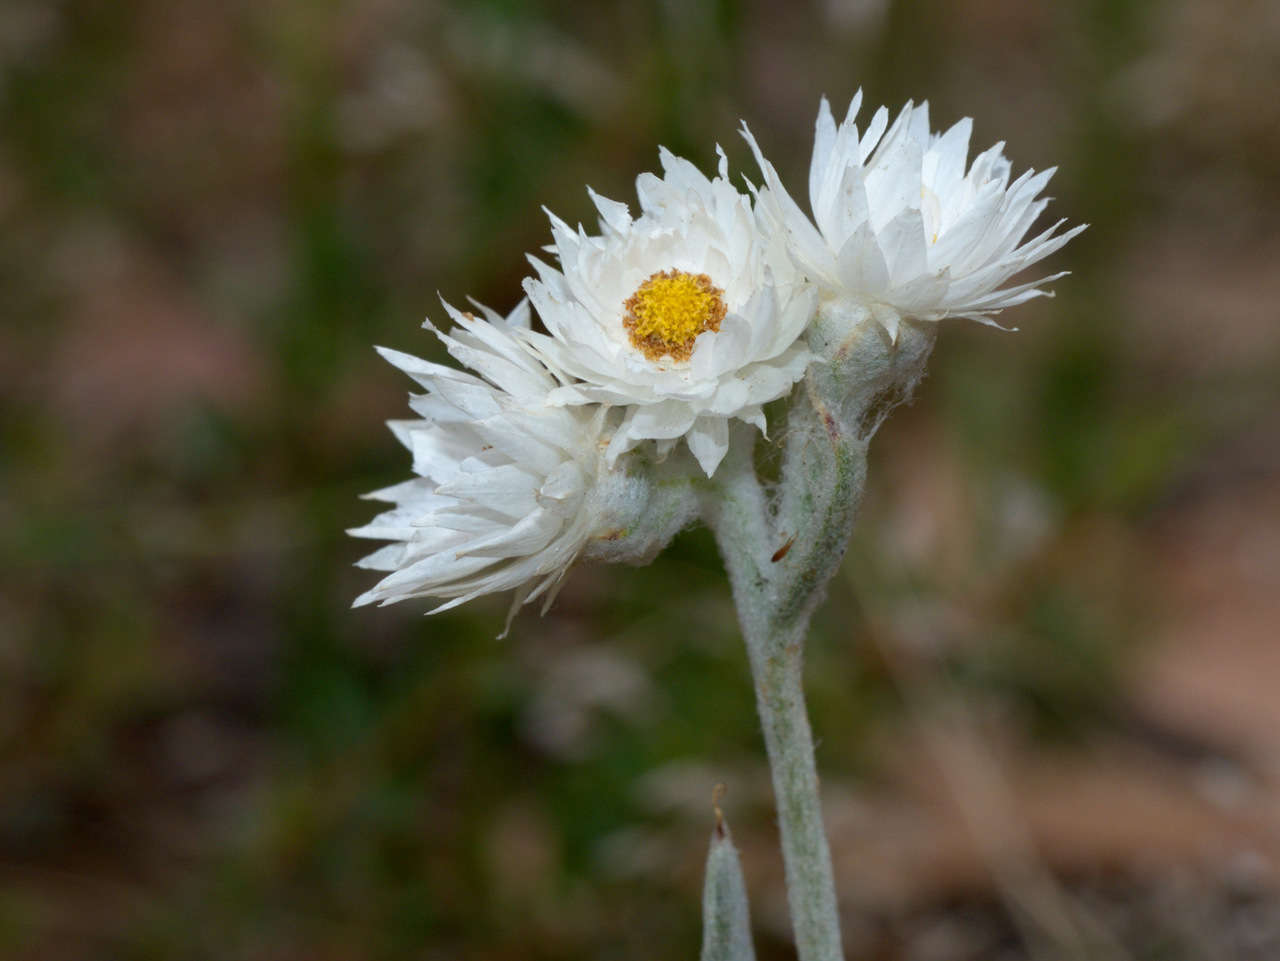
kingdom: Plantae
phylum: Tracheophyta
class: Magnoliopsida
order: Asterales
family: Asteraceae
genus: Argentipallium
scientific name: Argentipallium blandowskianum
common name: Woolly everlasting
